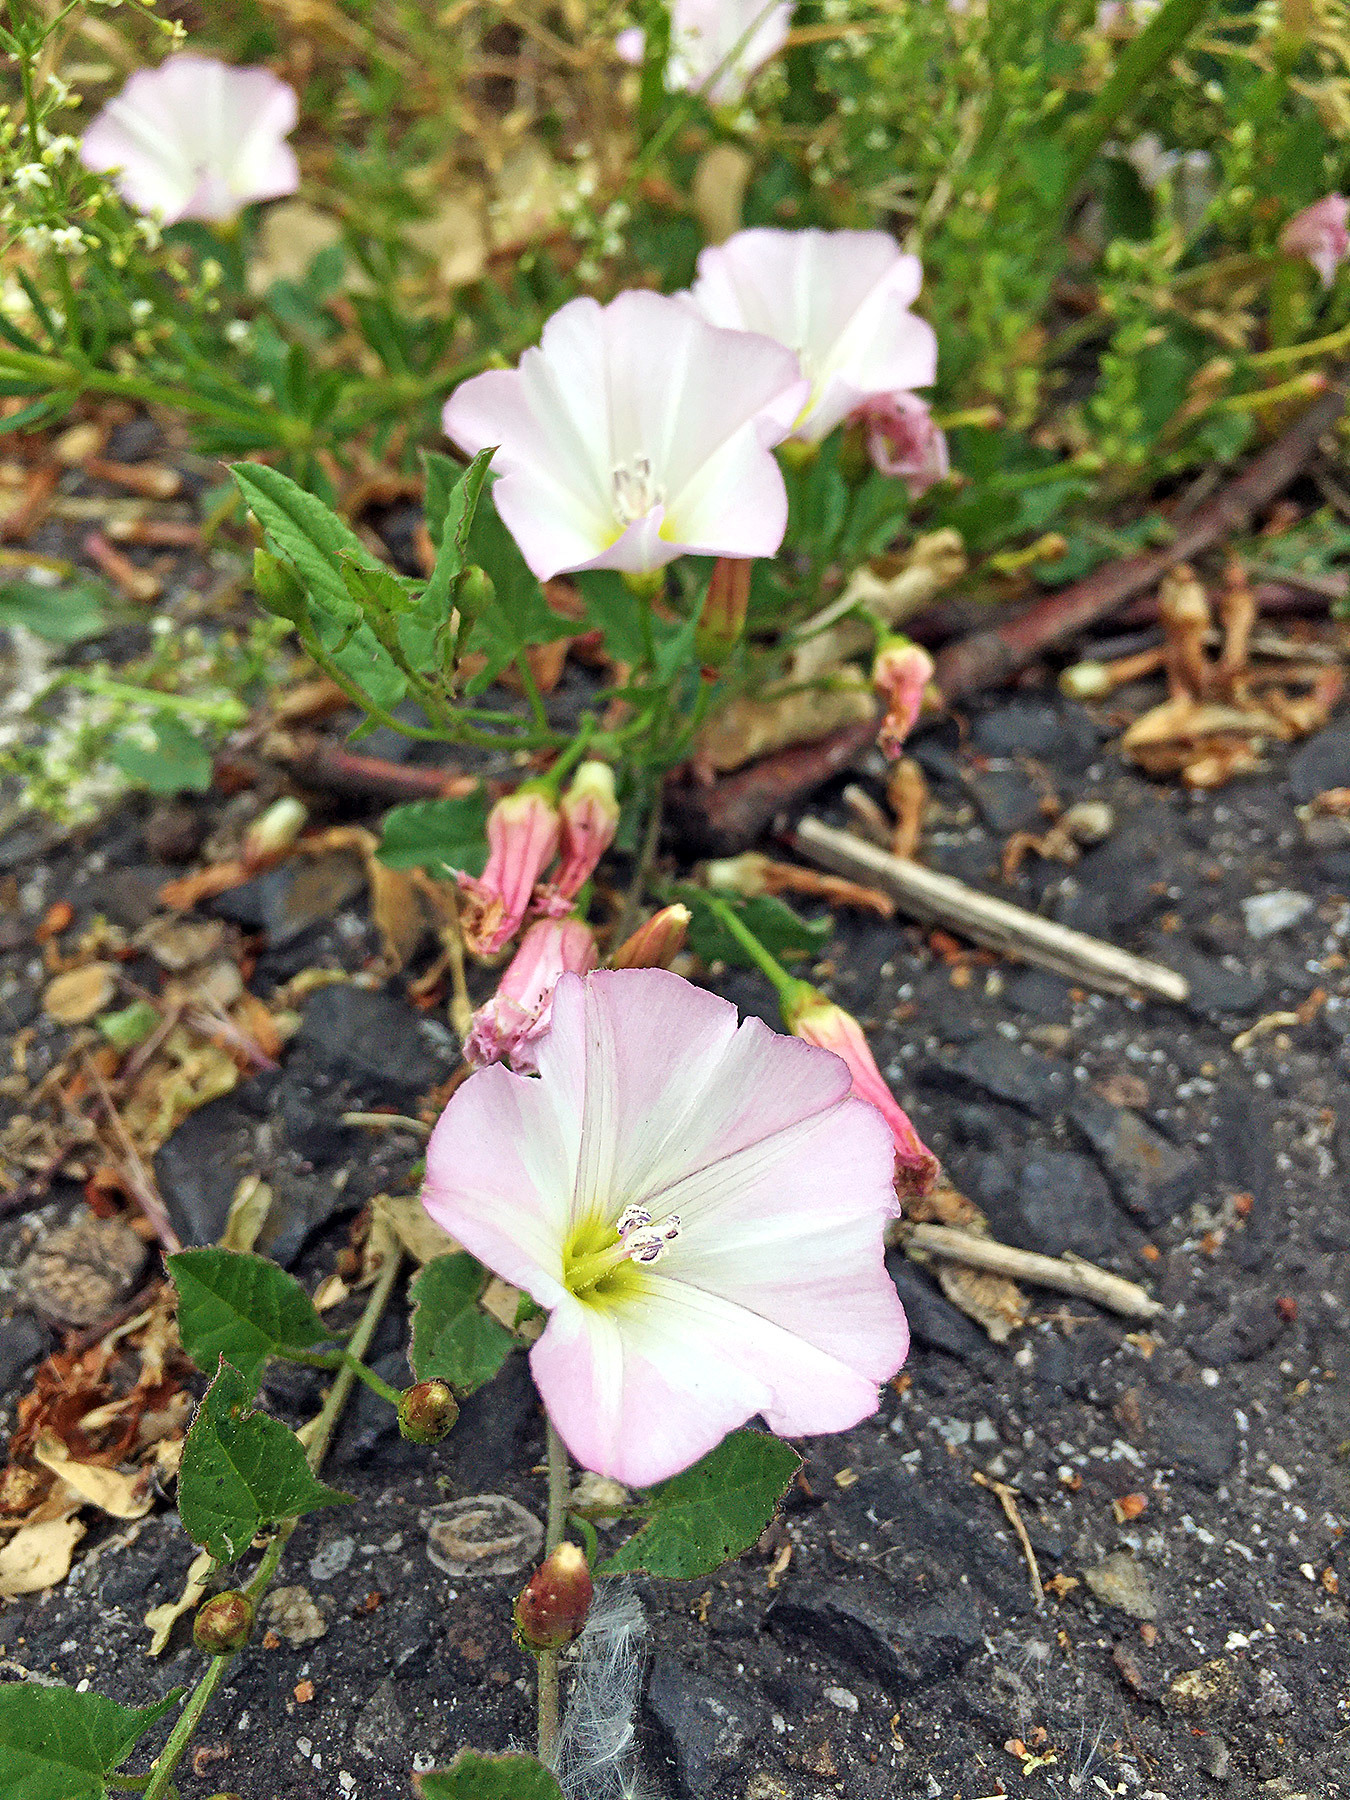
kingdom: Plantae
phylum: Tracheophyta
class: Magnoliopsida
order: Solanales
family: Convolvulaceae
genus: Convolvulus
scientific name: Convolvulus arvensis
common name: Field bindweed
